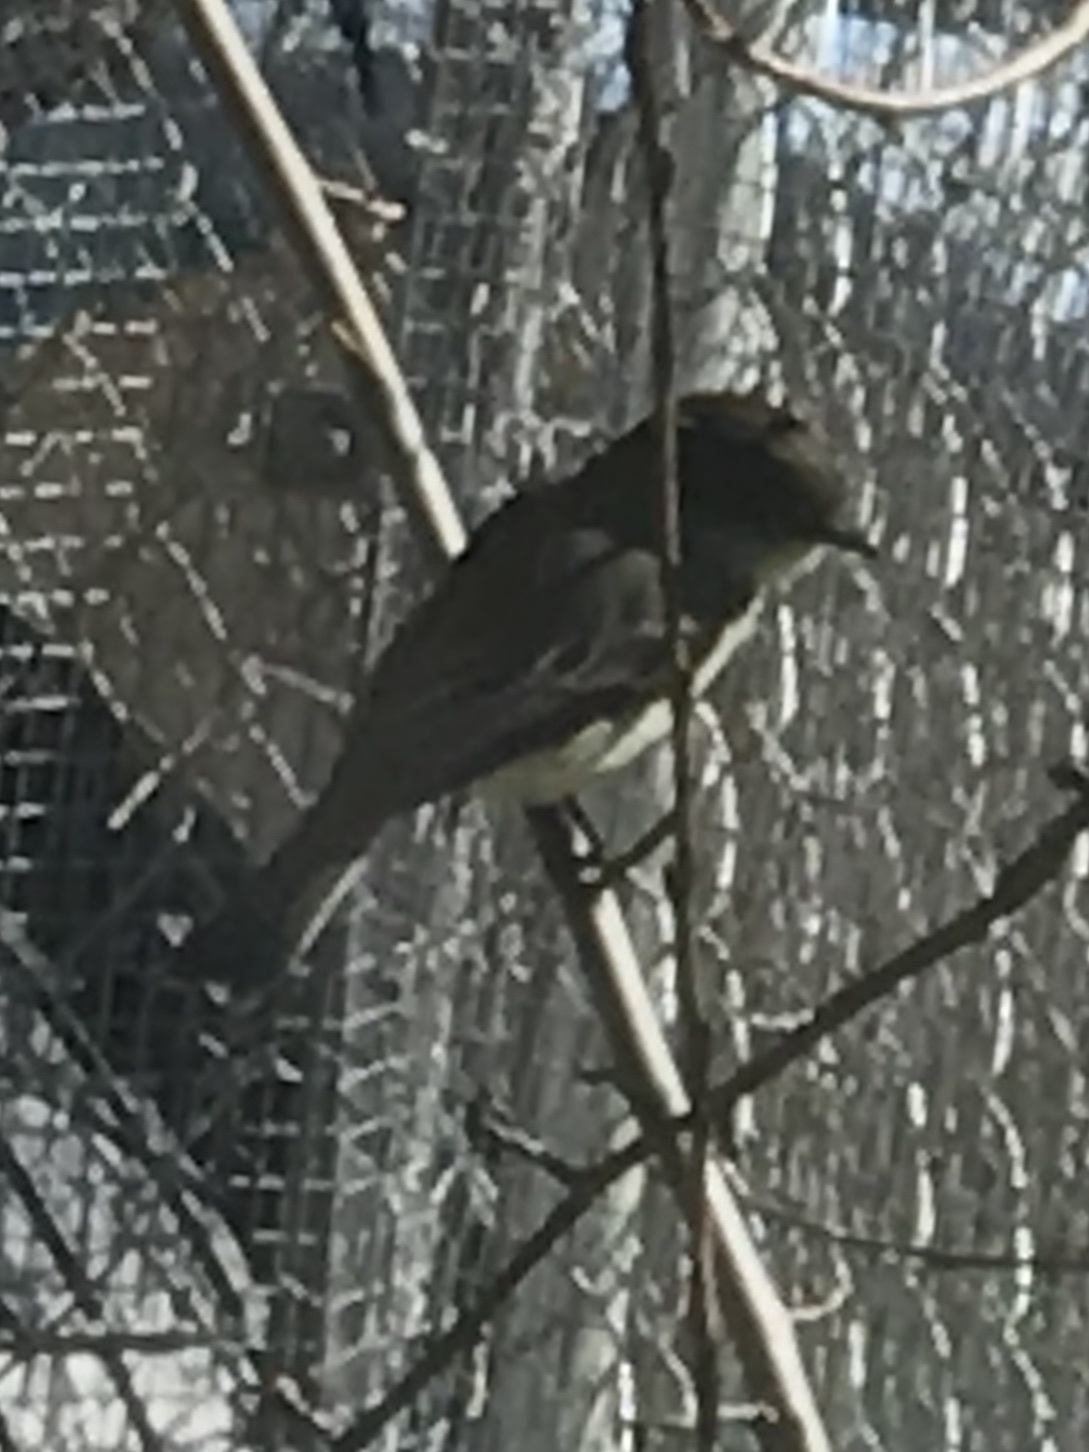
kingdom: Animalia
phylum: Chordata
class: Aves
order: Passeriformes
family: Tyrannidae
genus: Sayornis
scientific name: Sayornis phoebe
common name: Eastern phoebe
